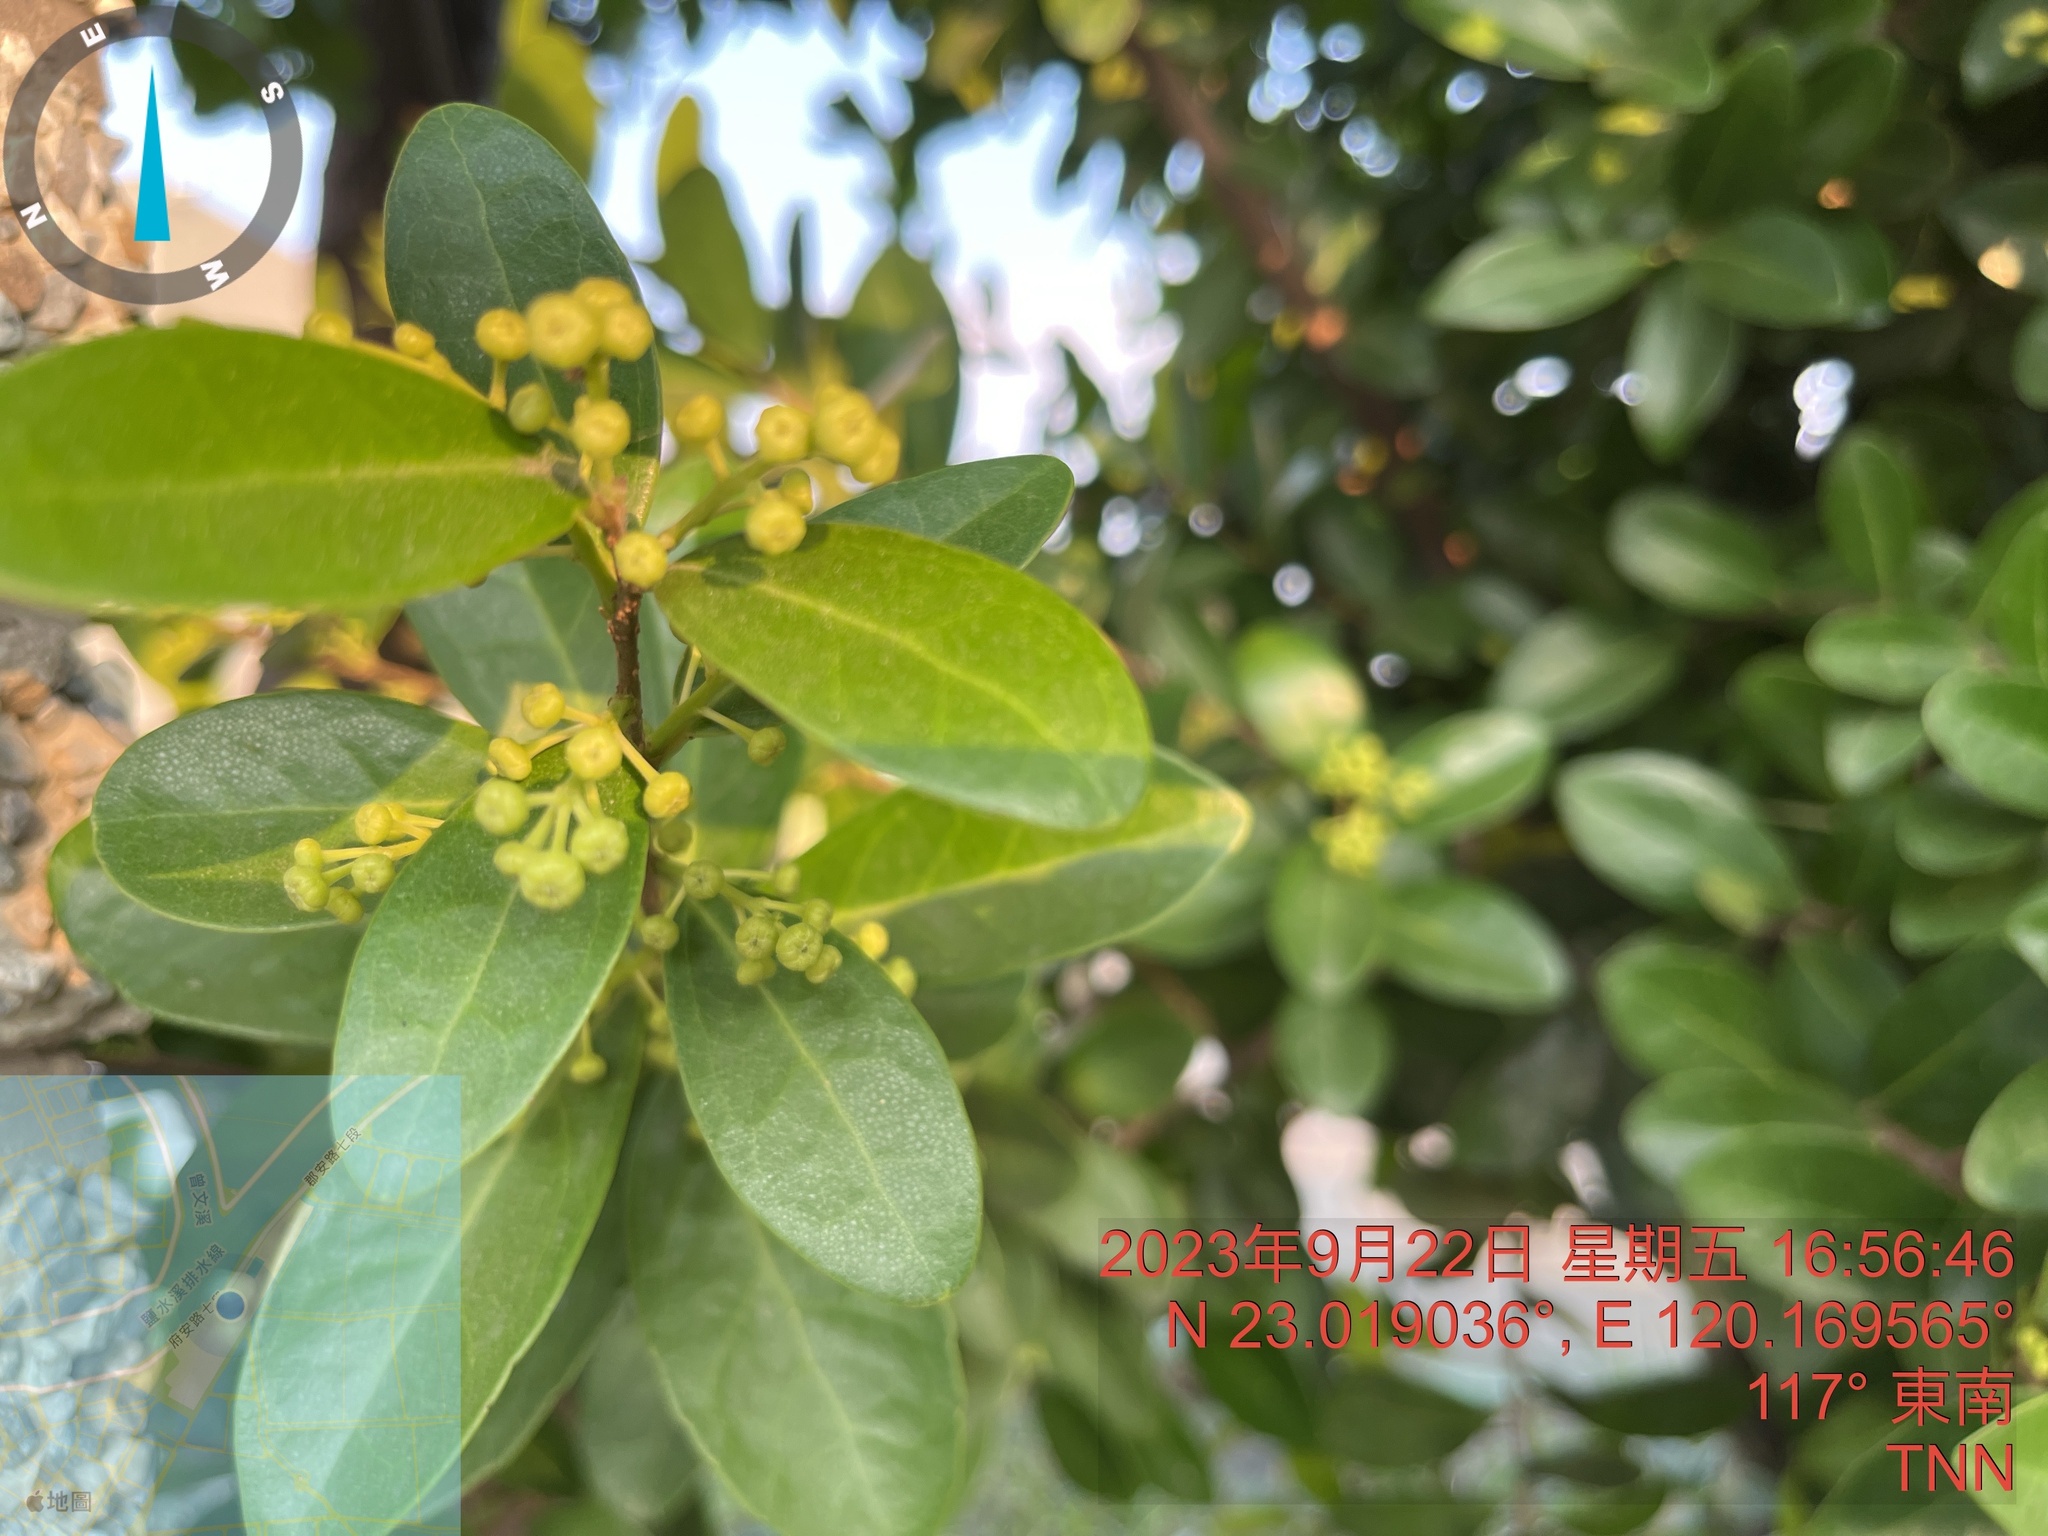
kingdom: Plantae
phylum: Tracheophyta
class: Magnoliopsida
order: Rosales
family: Moraceae
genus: Ficus
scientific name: Ficus microcarpa
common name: Chinese banyan
